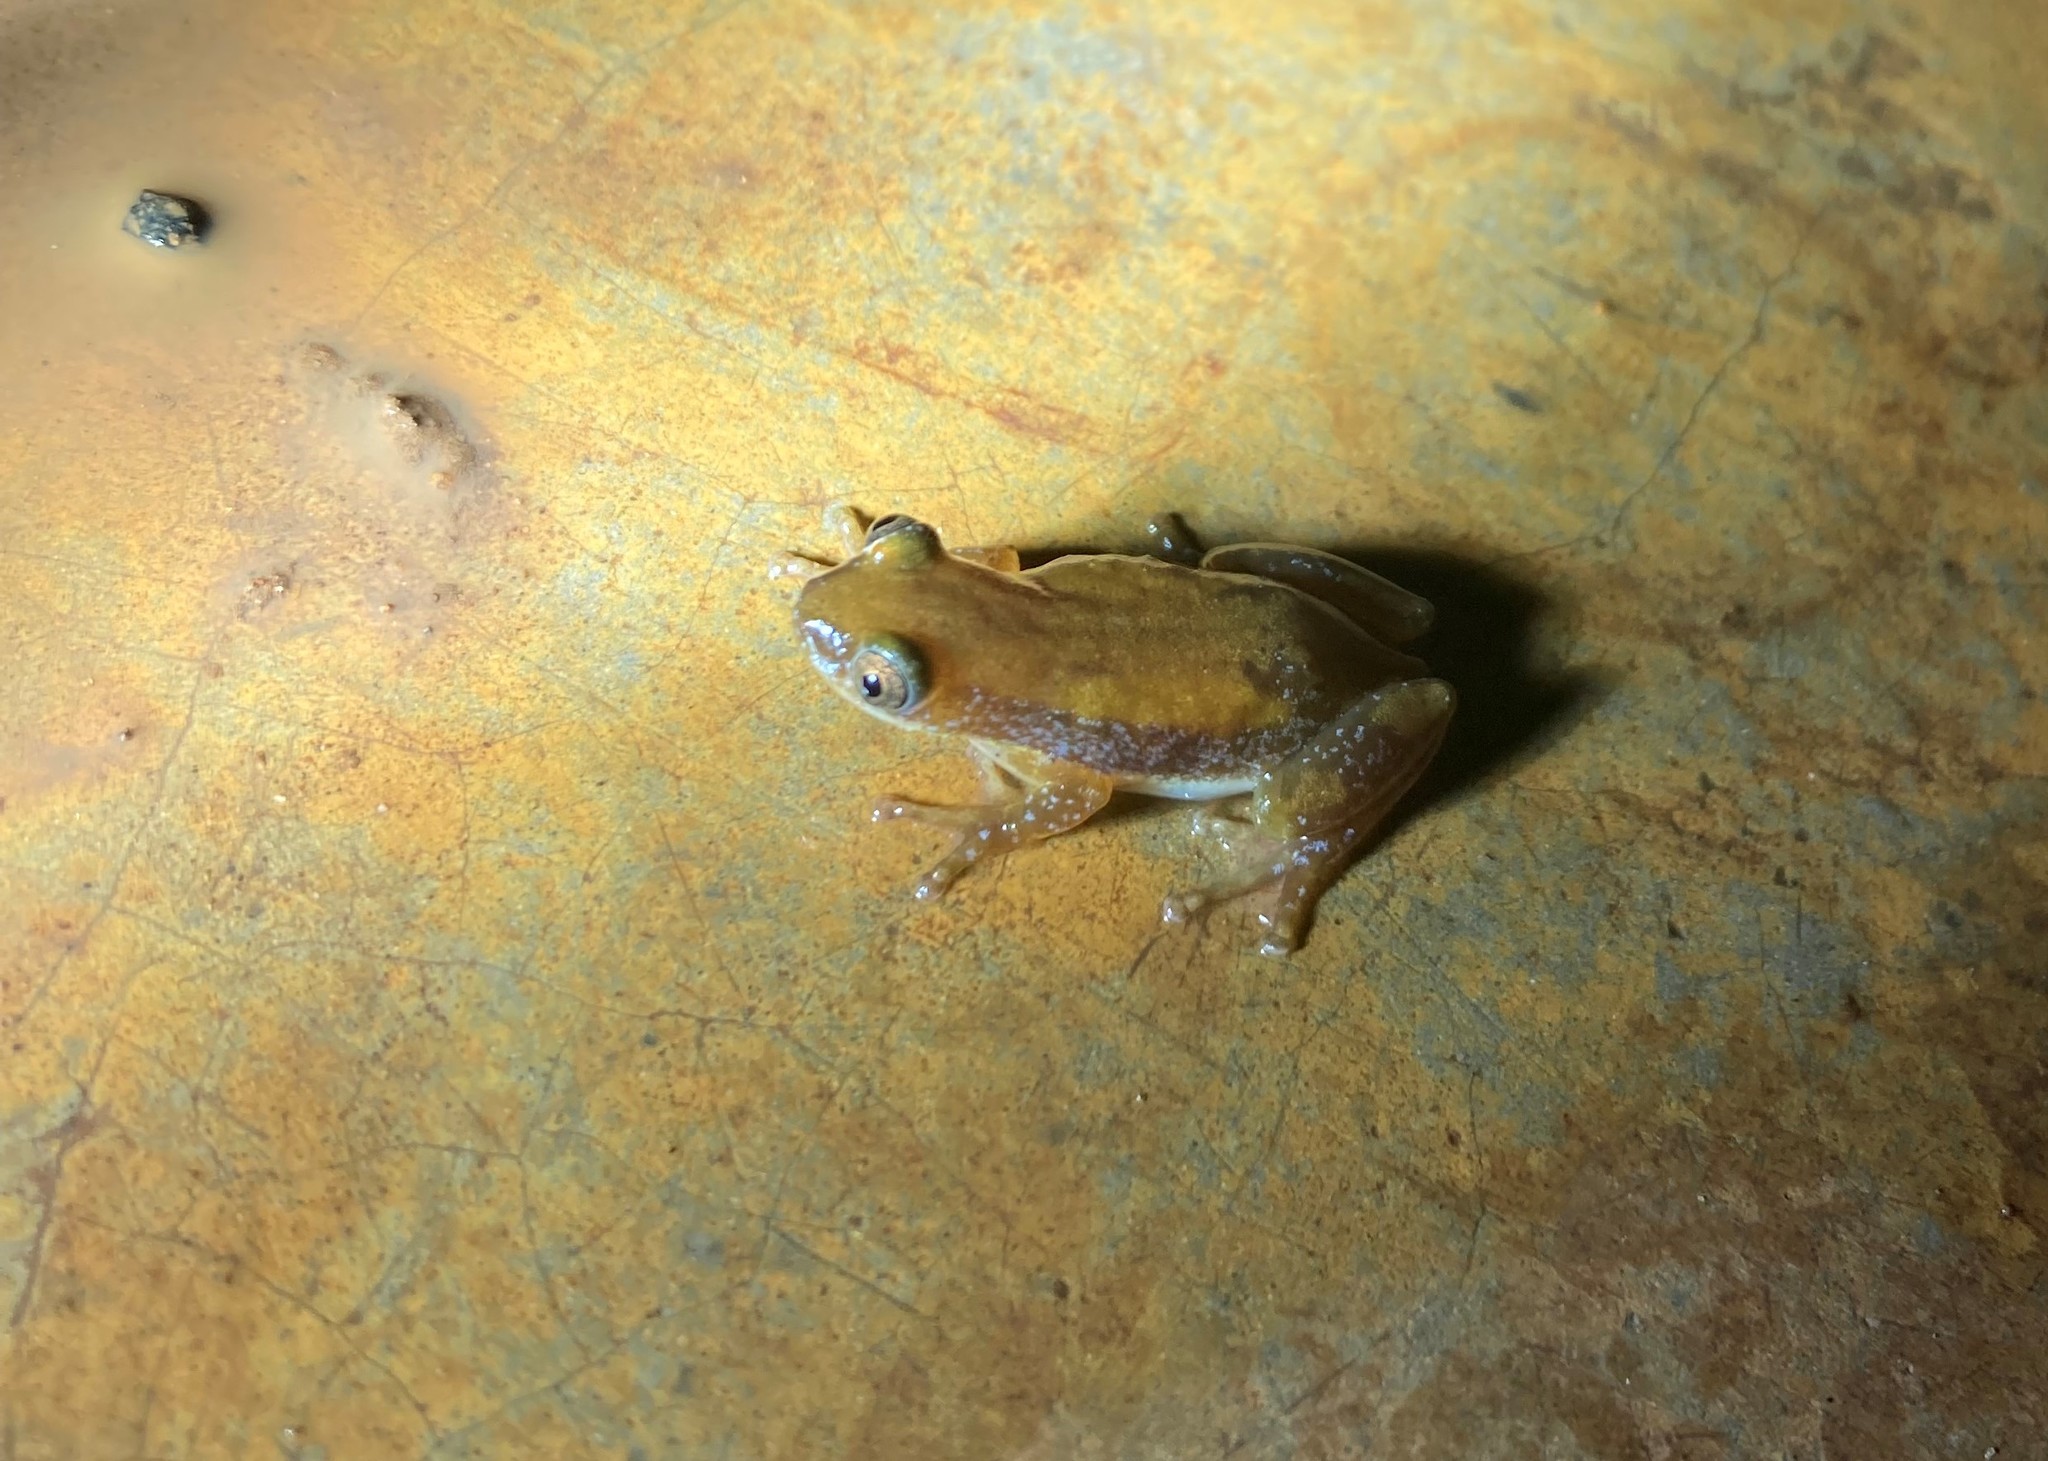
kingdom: Animalia
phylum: Chordata
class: Amphibia
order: Anura
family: Hyperoliidae
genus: Afrixalus
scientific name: Afrixalus aureus
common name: Golden banana frog
